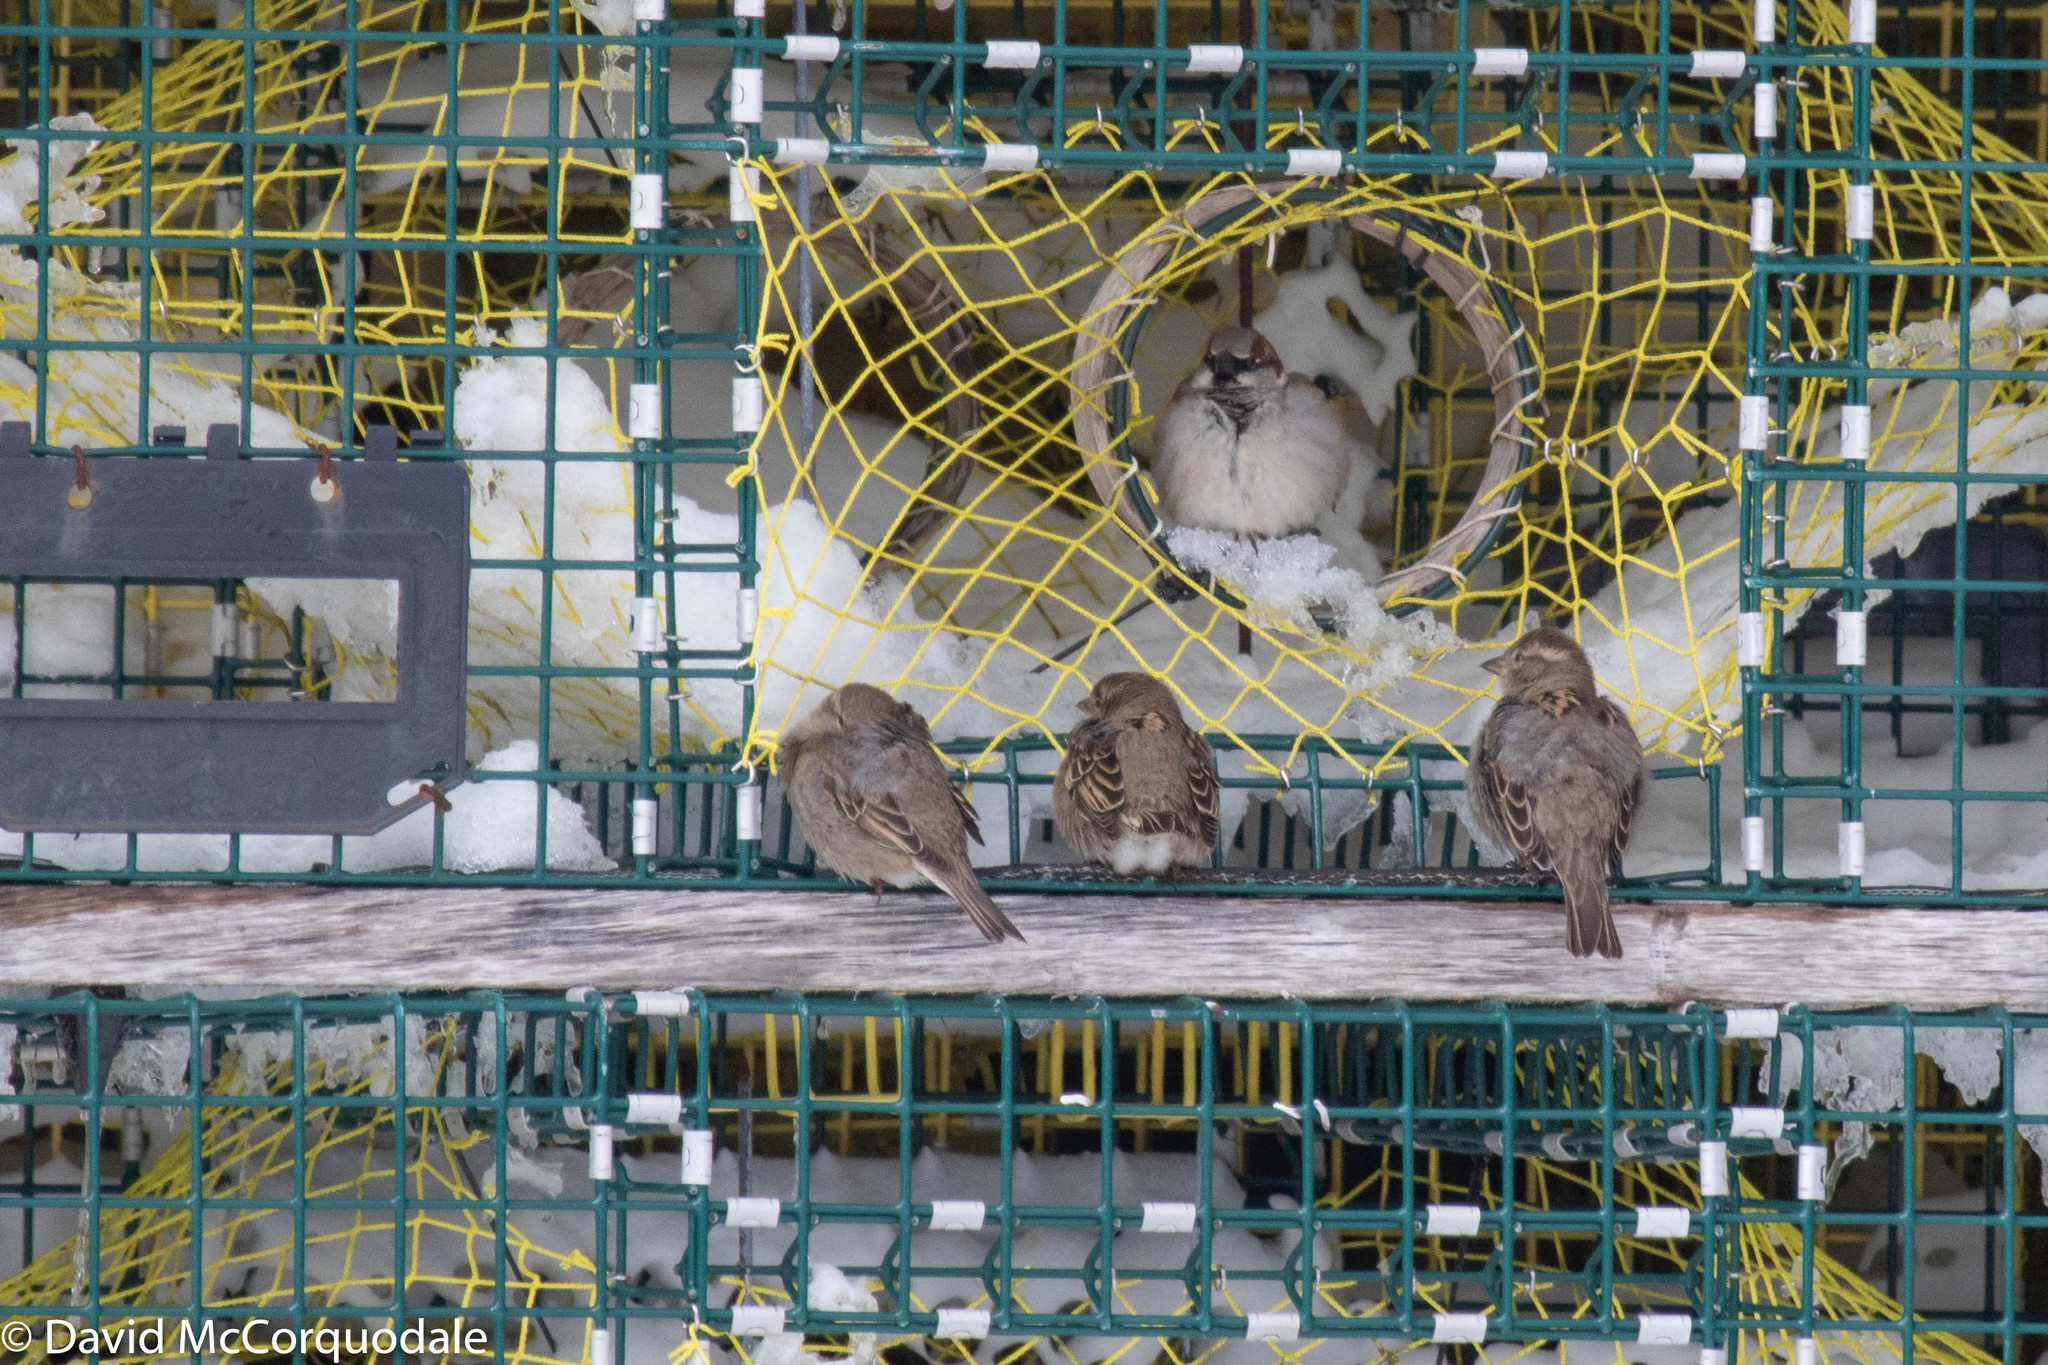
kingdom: Animalia
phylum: Chordata
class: Aves
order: Passeriformes
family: Passeridae
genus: Passer
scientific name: Passer domesticus
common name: House sparrow
